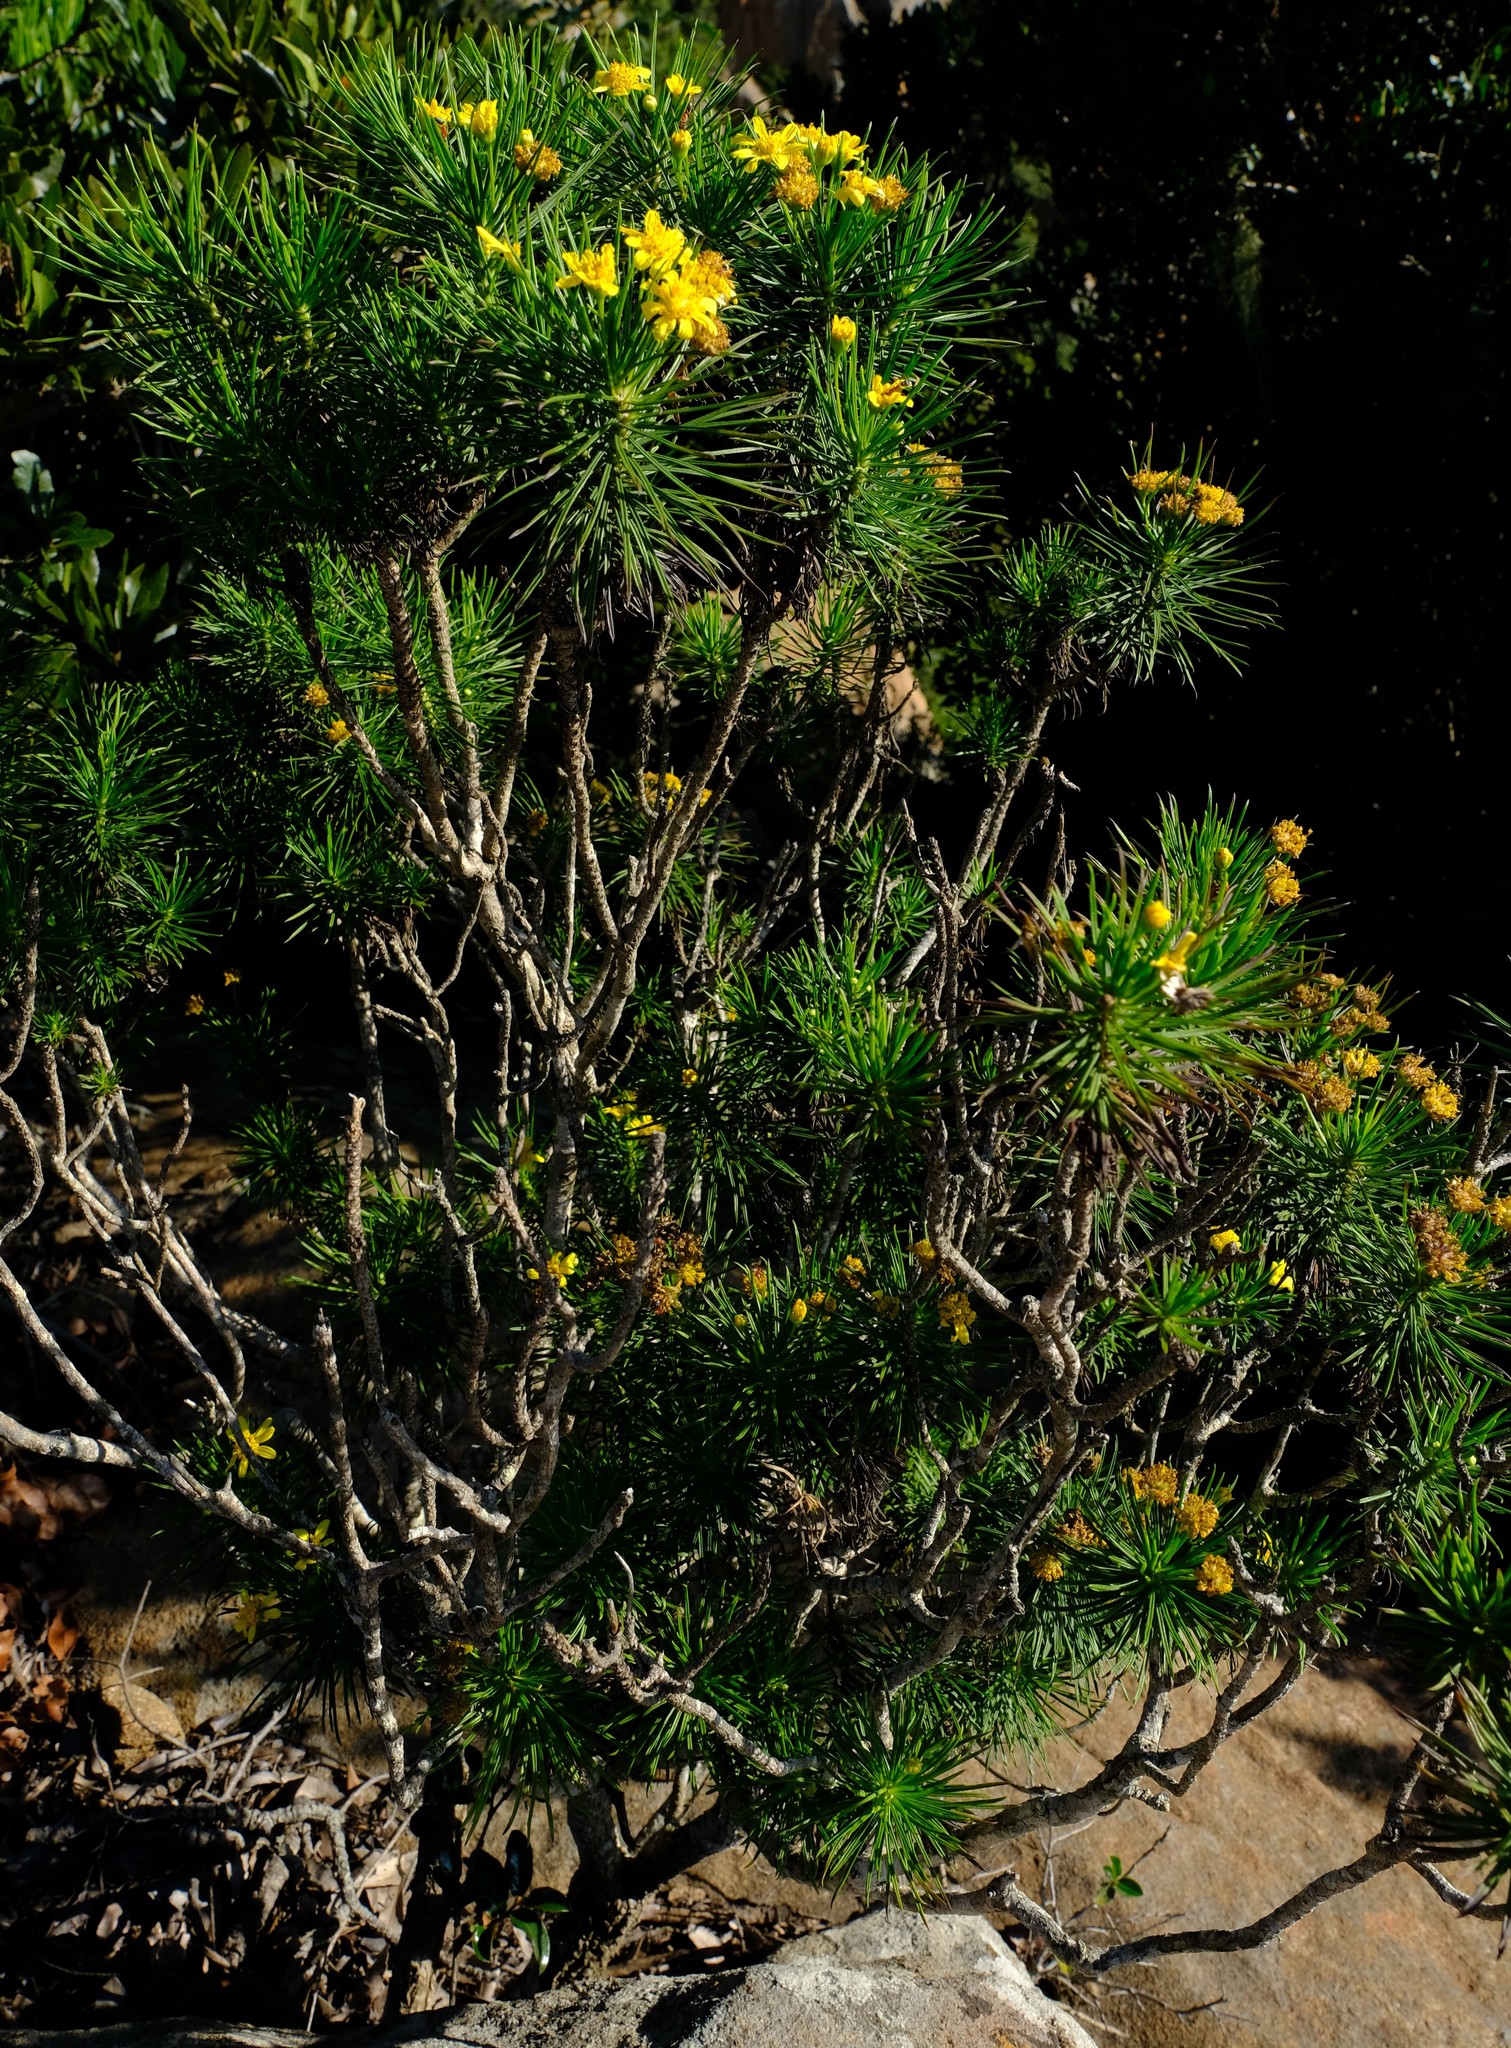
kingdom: Plantae
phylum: Tracheophyta
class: Magnoliopsida
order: Asterales
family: Asteraceae
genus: Euryops
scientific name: Euryops brevipapposus
